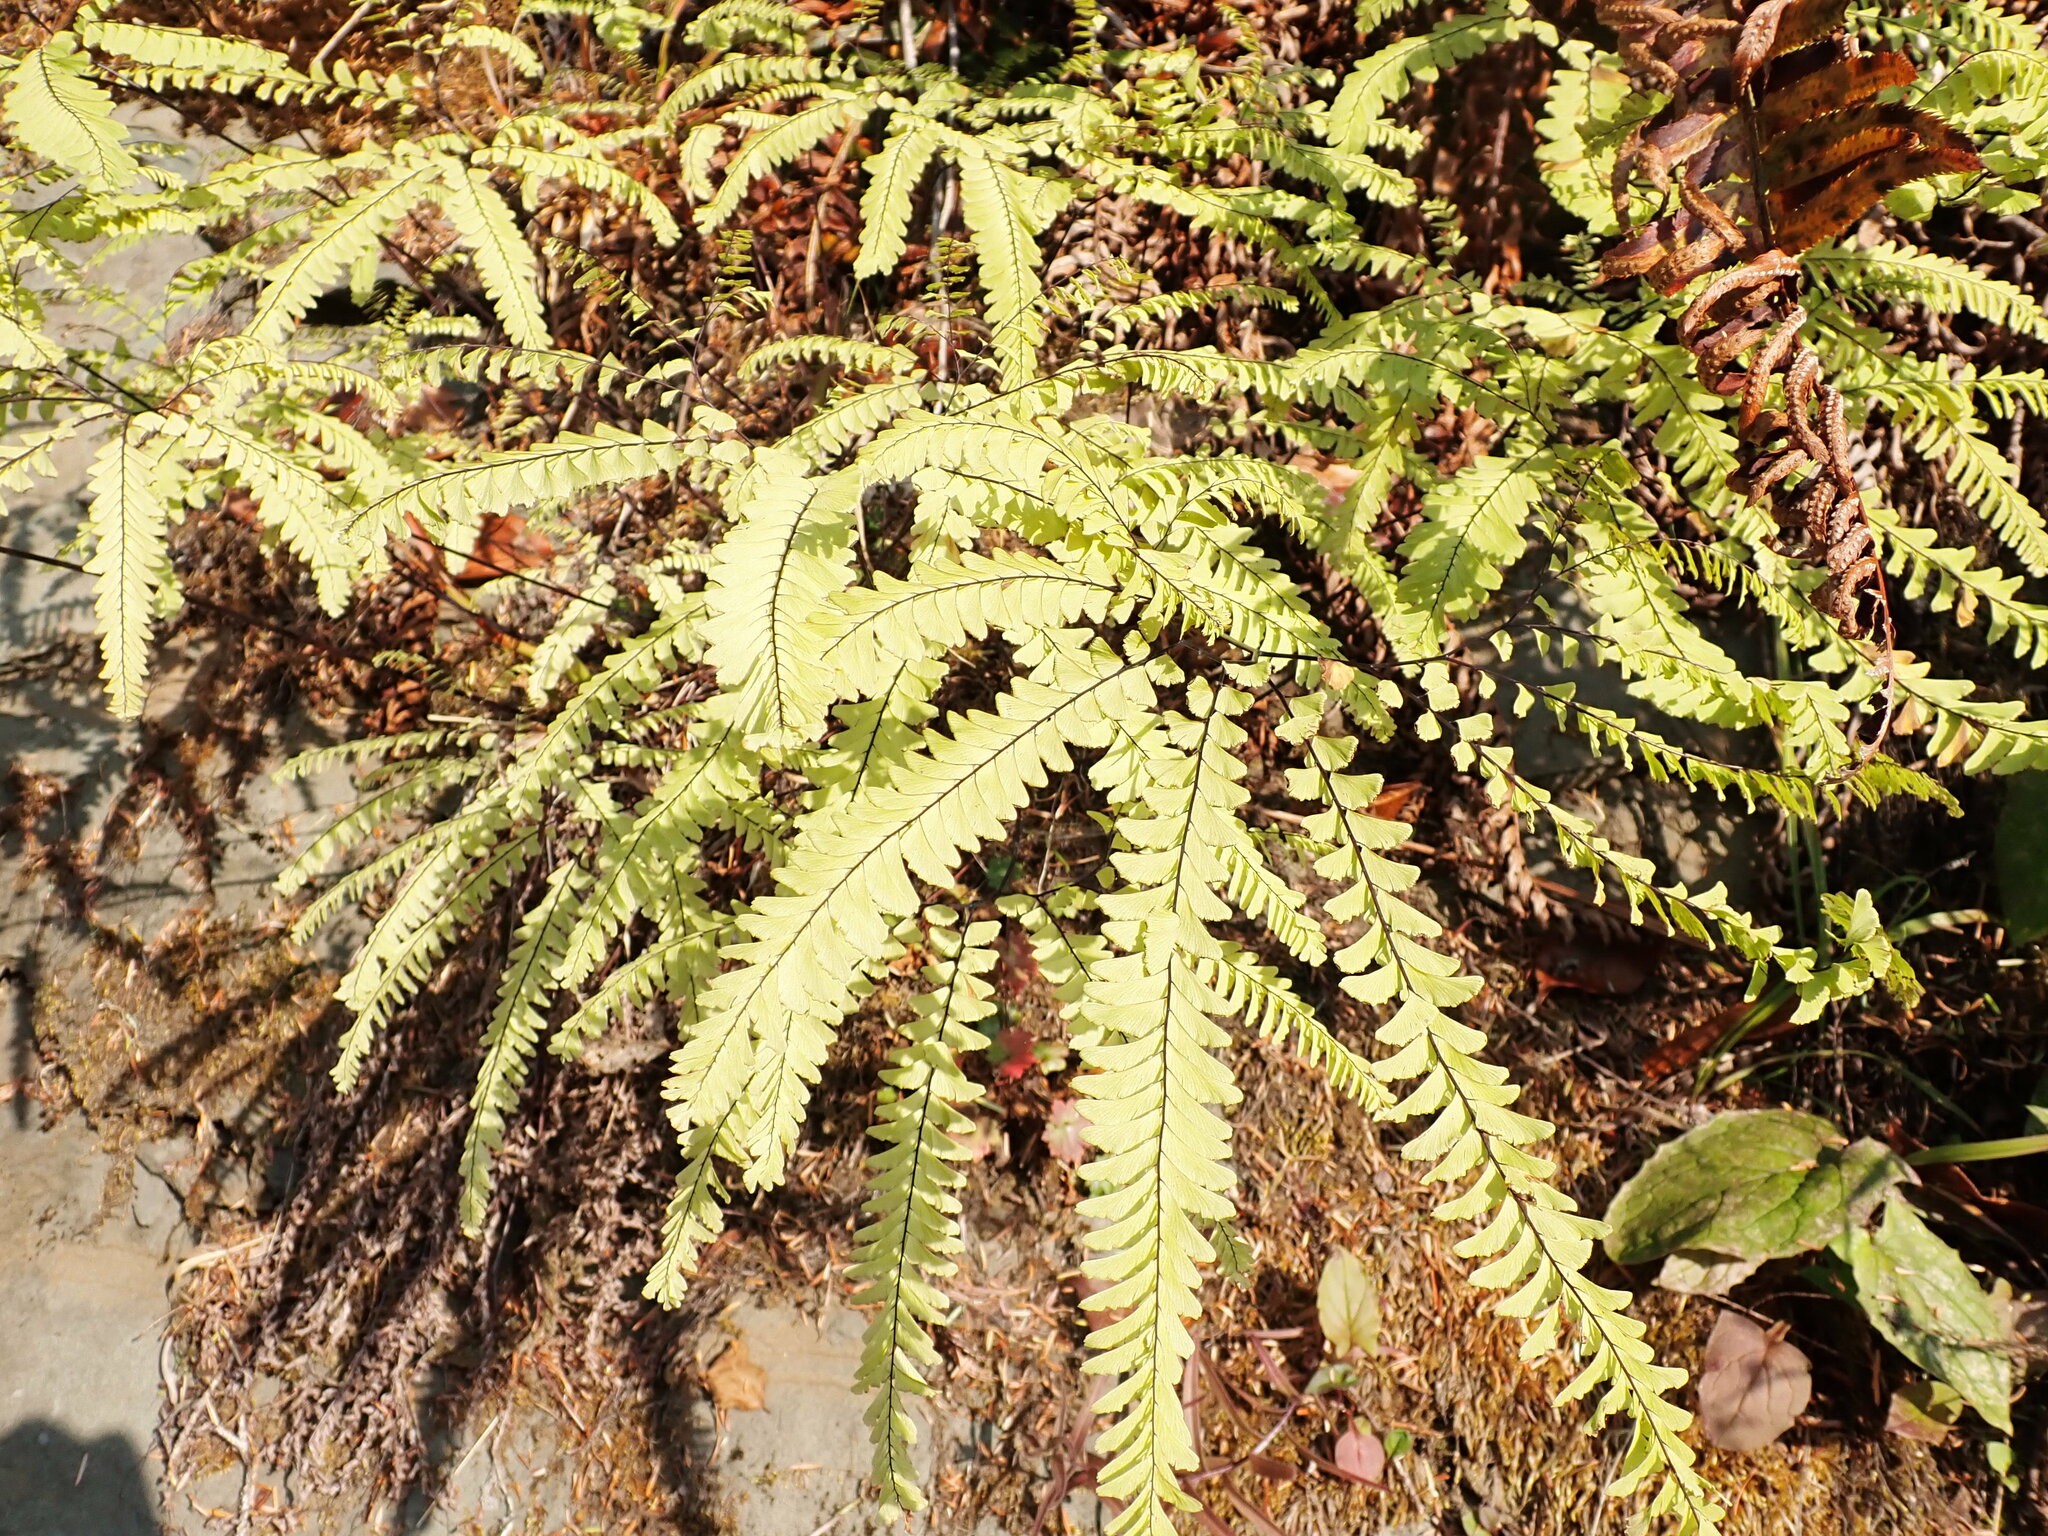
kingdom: Plantae
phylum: Tracheophyta
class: Polypodiopsida
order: Polypodiales
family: Pteridaceae
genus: Adiantum
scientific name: Adiantum aleuticum
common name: Aleutian maidenhair fern
